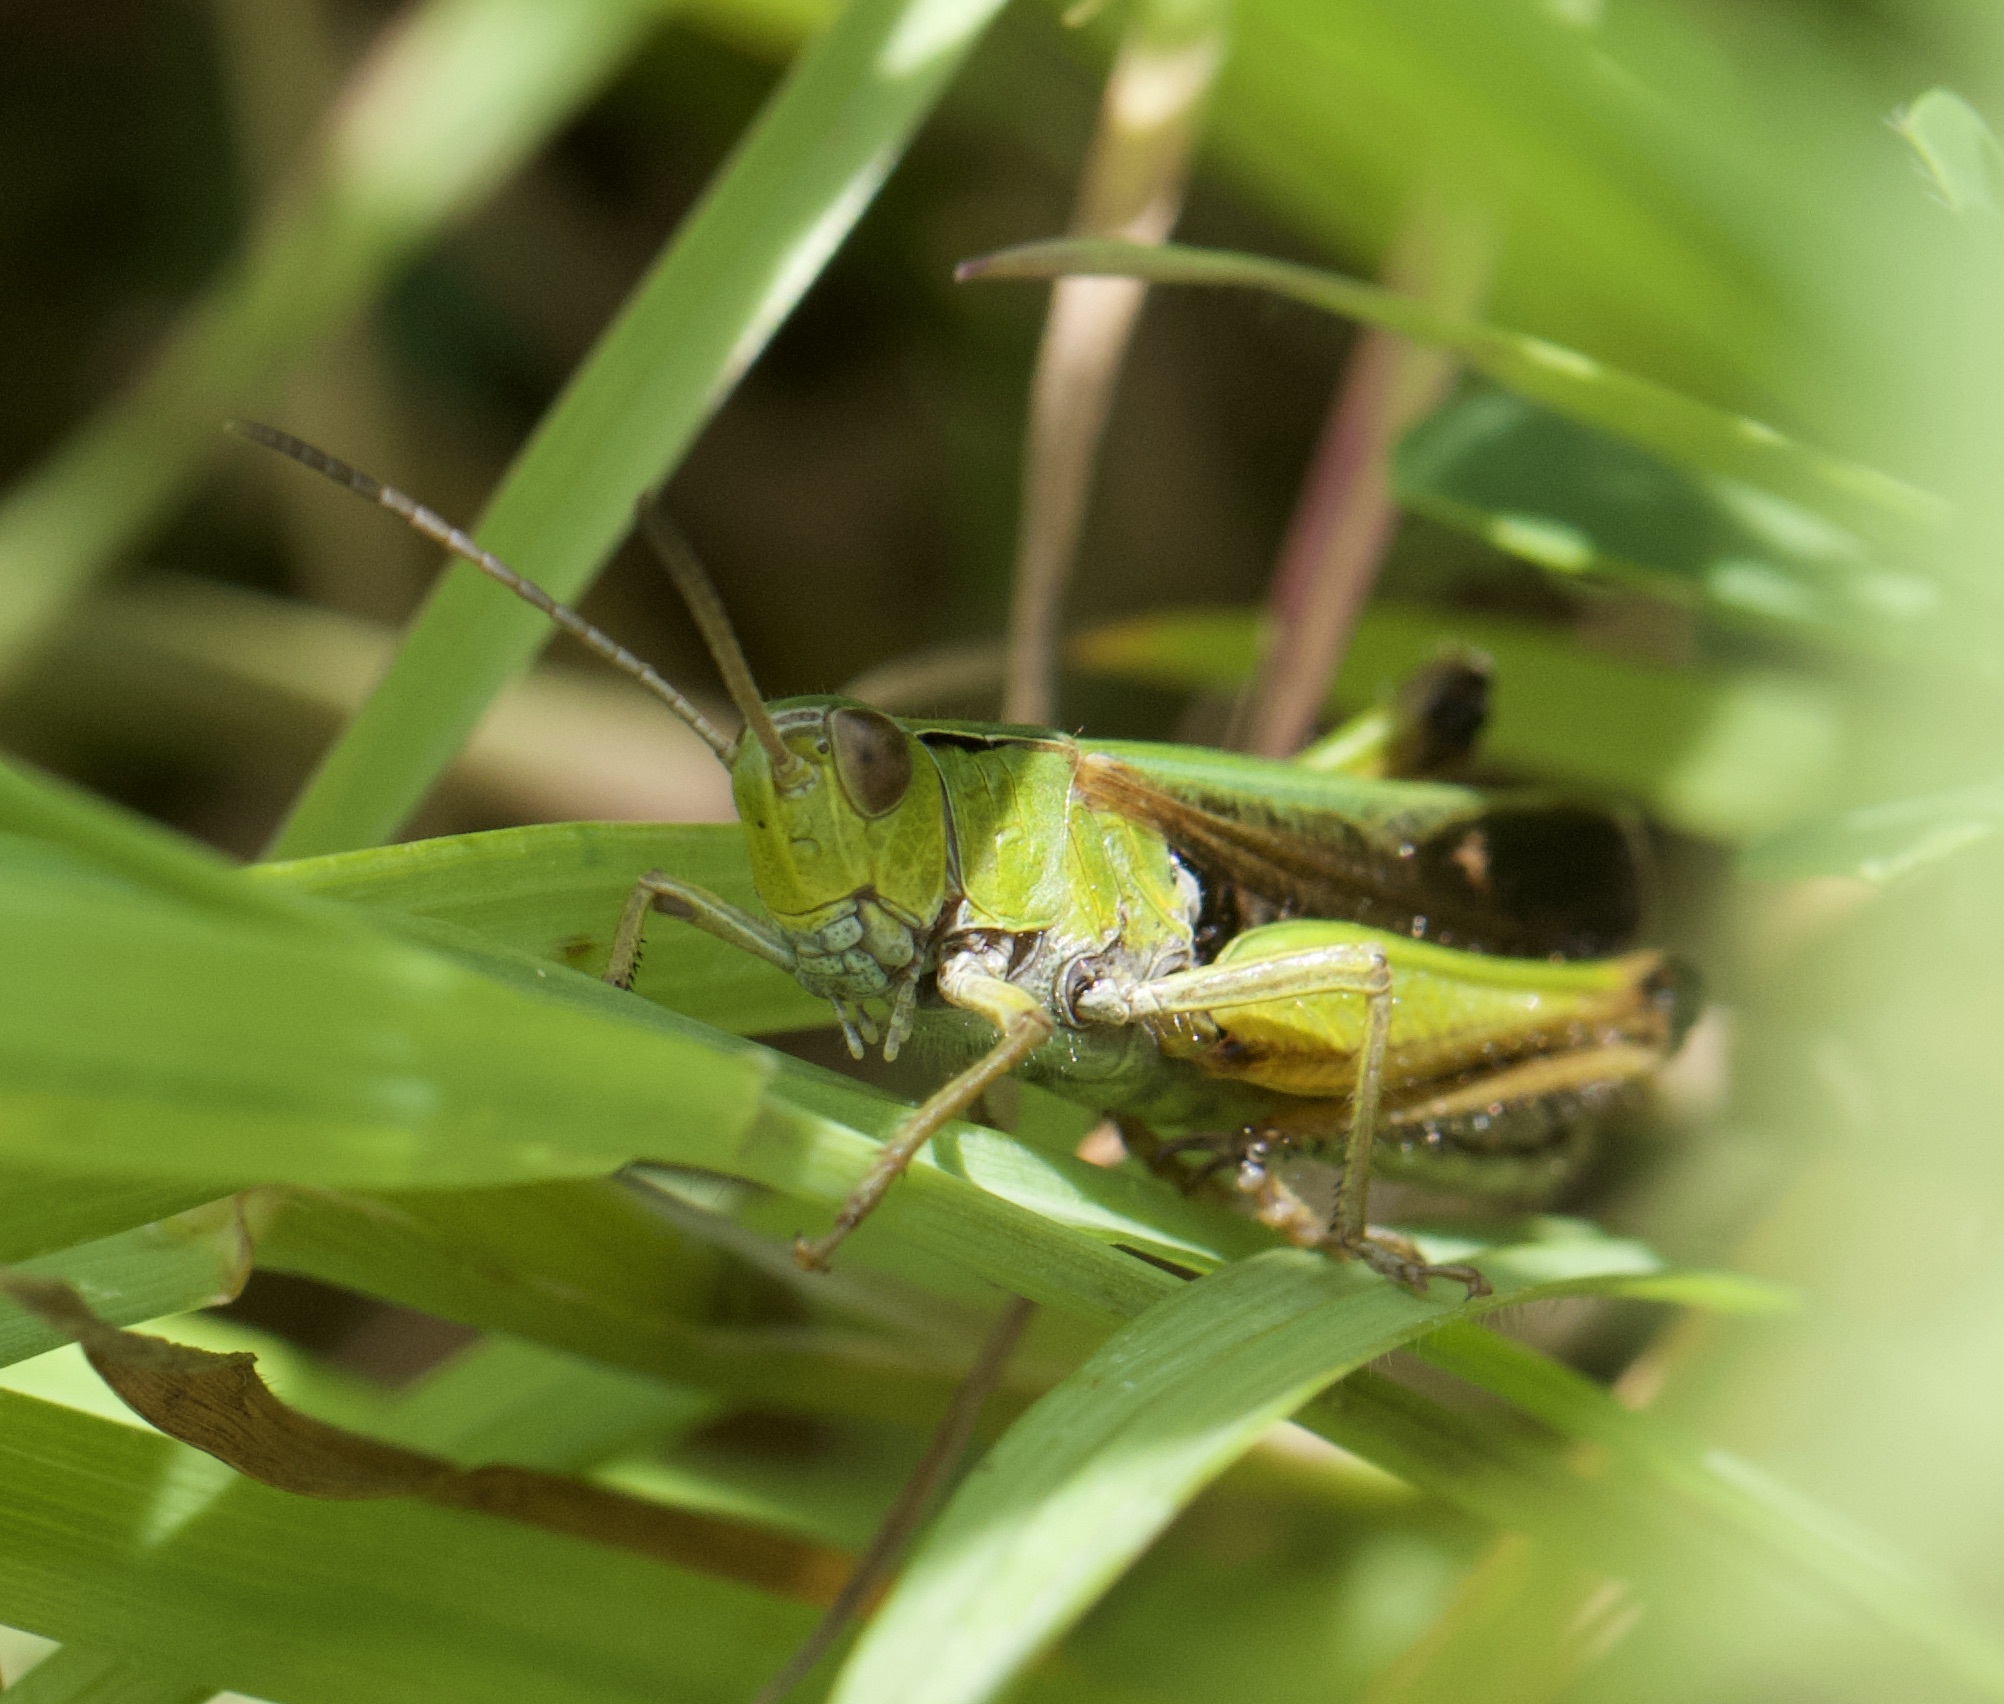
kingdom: Animalia
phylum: Arthropoda
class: Insecta
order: Orthoptera
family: Acrididae
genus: Omocestus
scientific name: Omocestus viridulus
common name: Common green grasshopper
